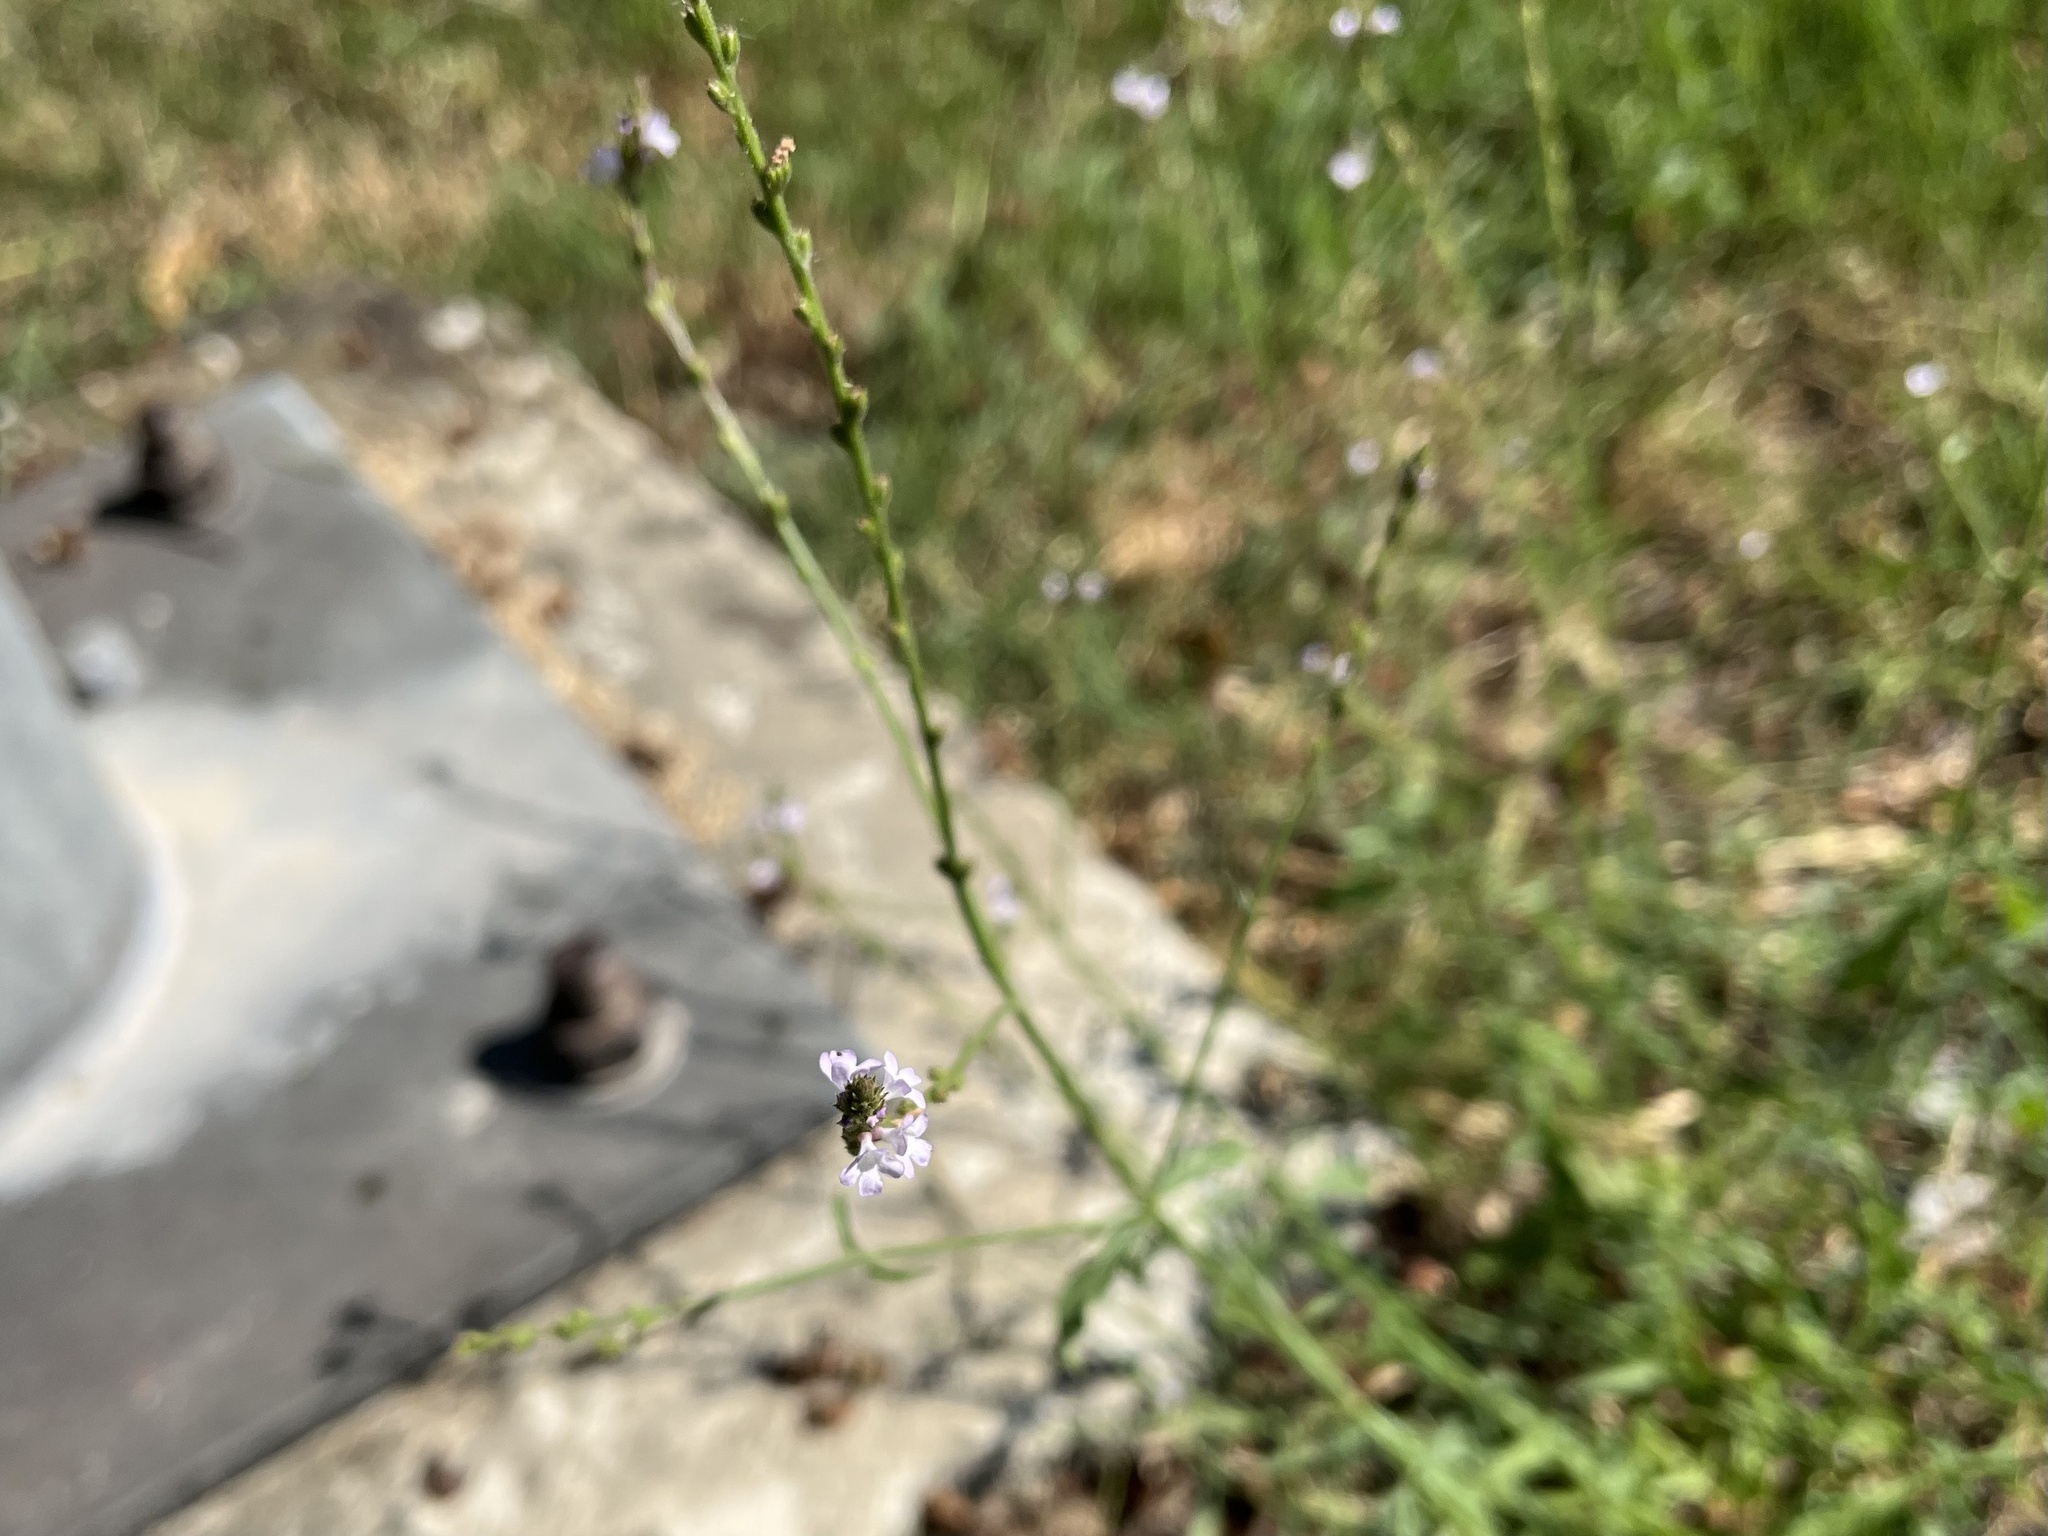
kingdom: Plantae
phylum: Tracheophyta
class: Magnoliopsida
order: Lamiales
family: Verbenaceae
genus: Verbena
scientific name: Verbena officinalis
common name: Vervain
